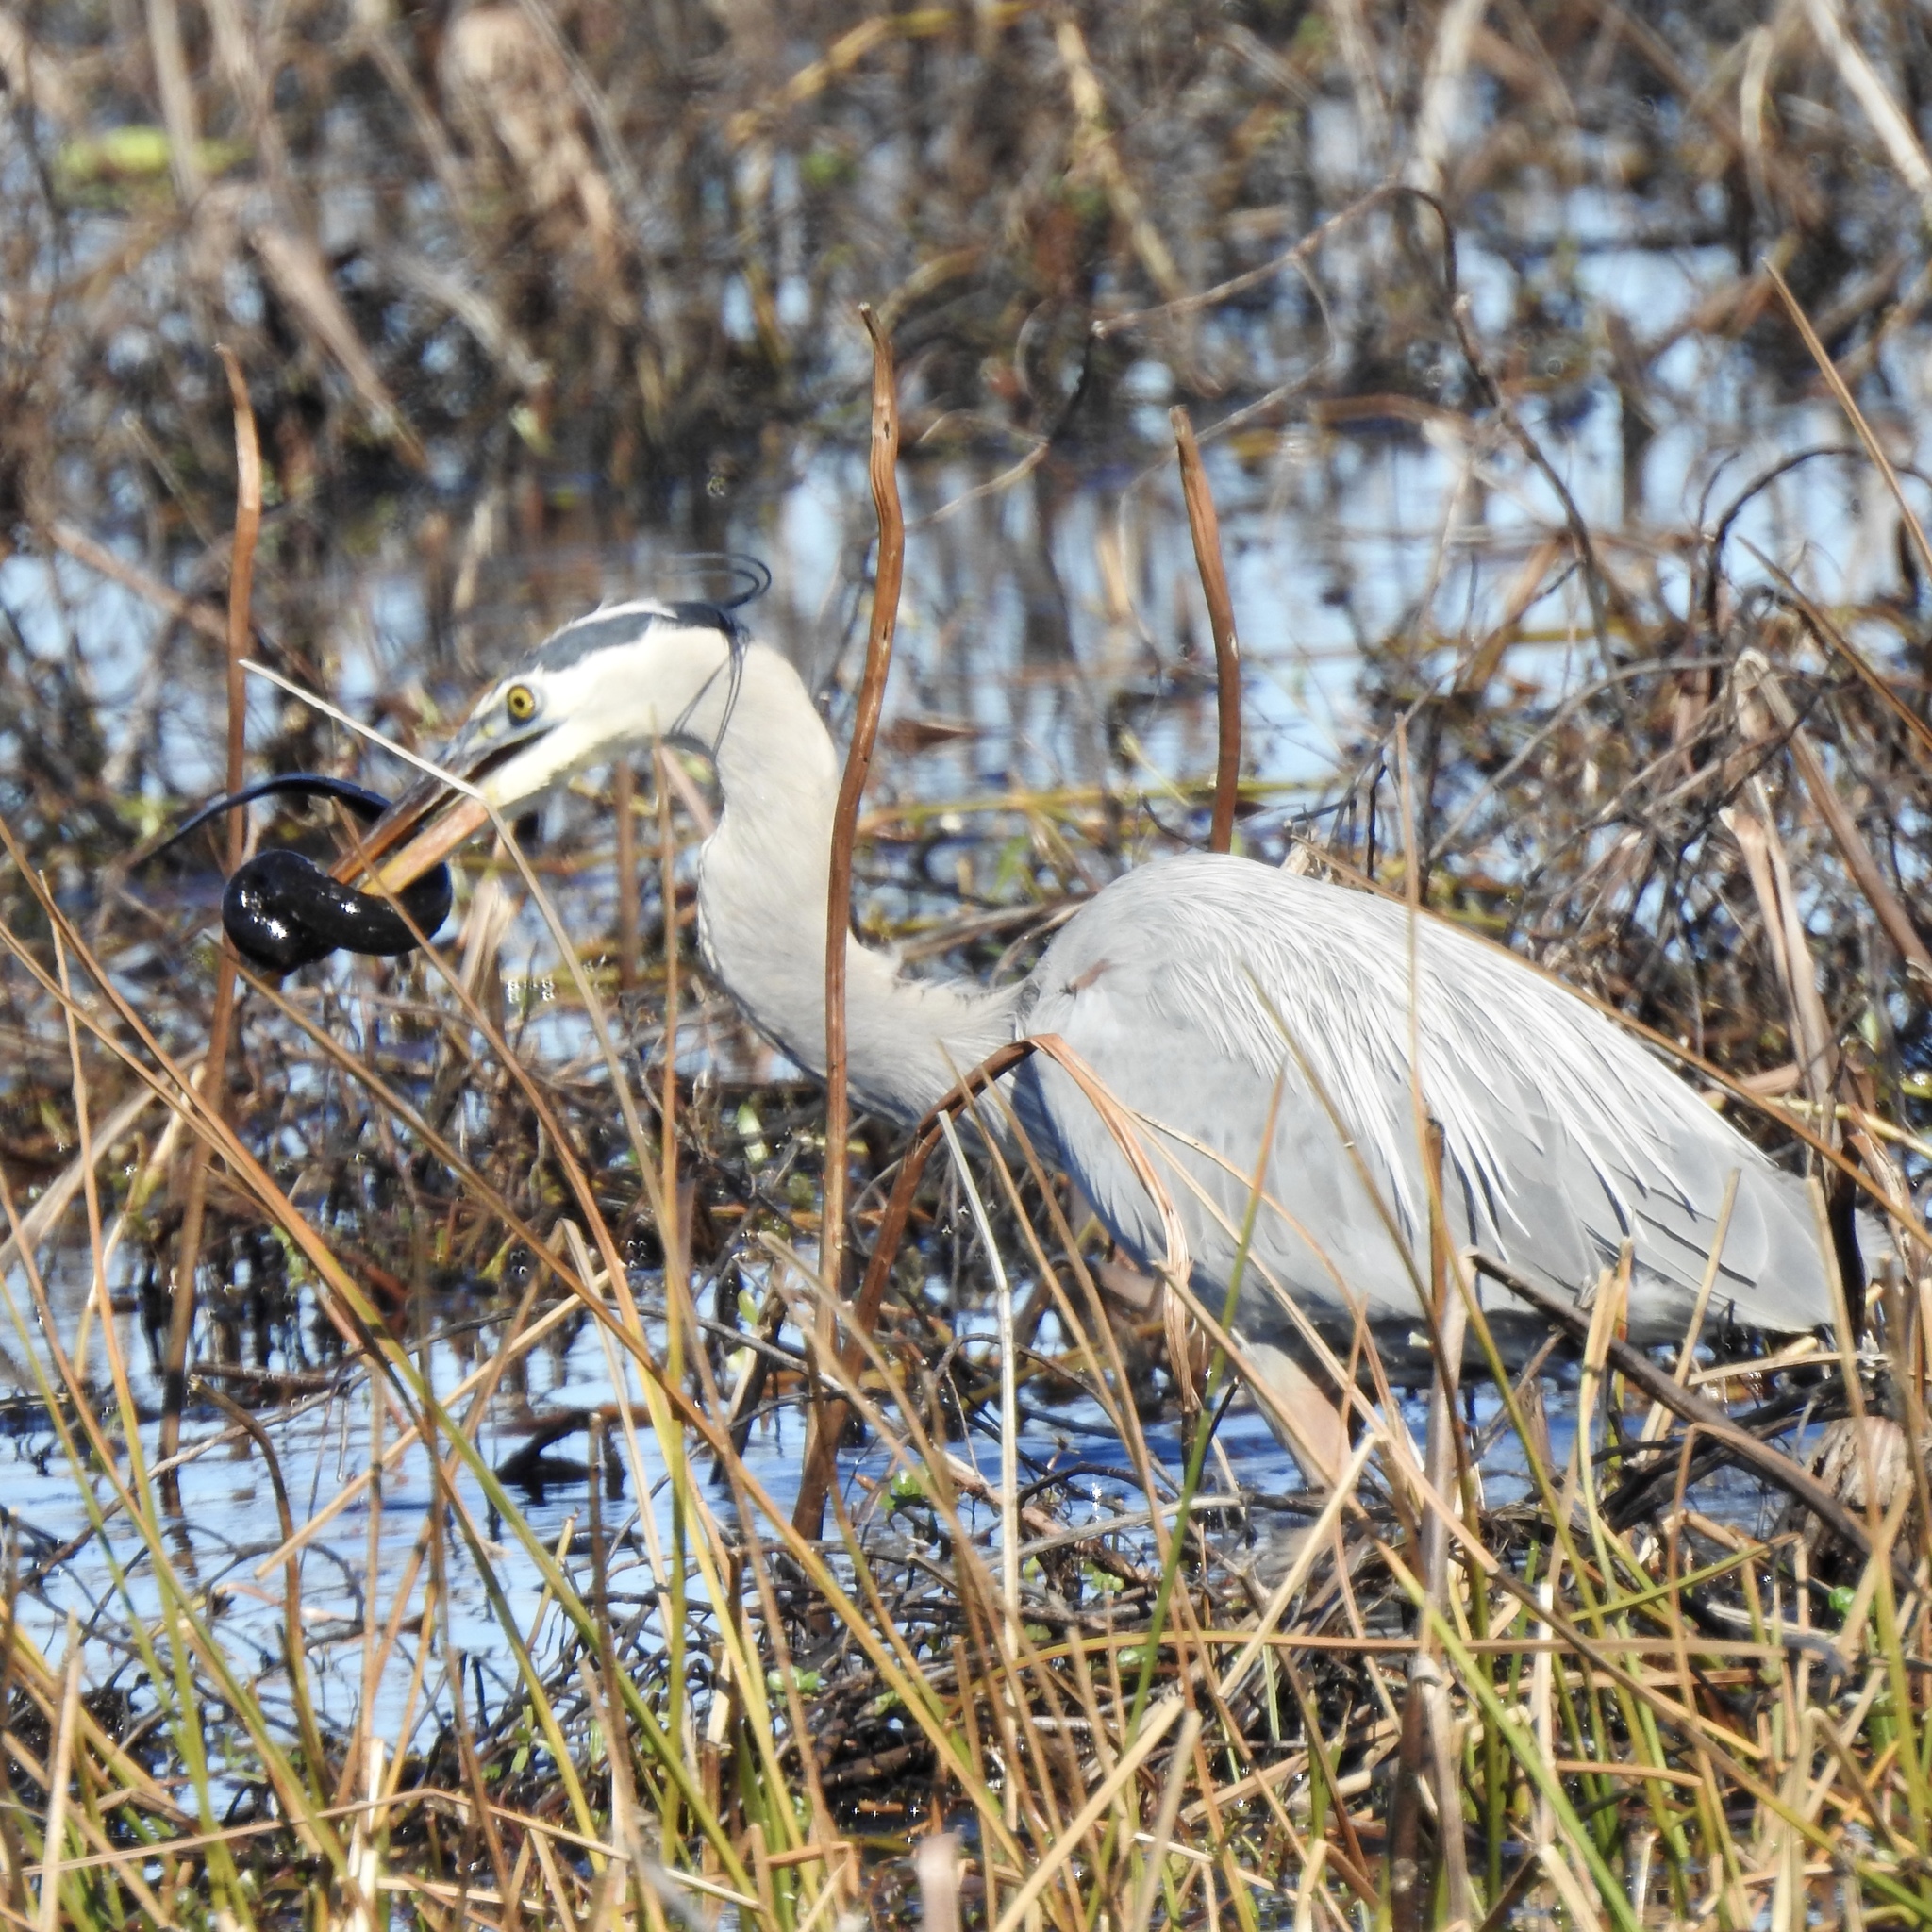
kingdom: Animalia
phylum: Chordata
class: Aves
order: Pelecaniformes
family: Ardeidae
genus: Ardea
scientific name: Ardea herodias
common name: Great blue heron
